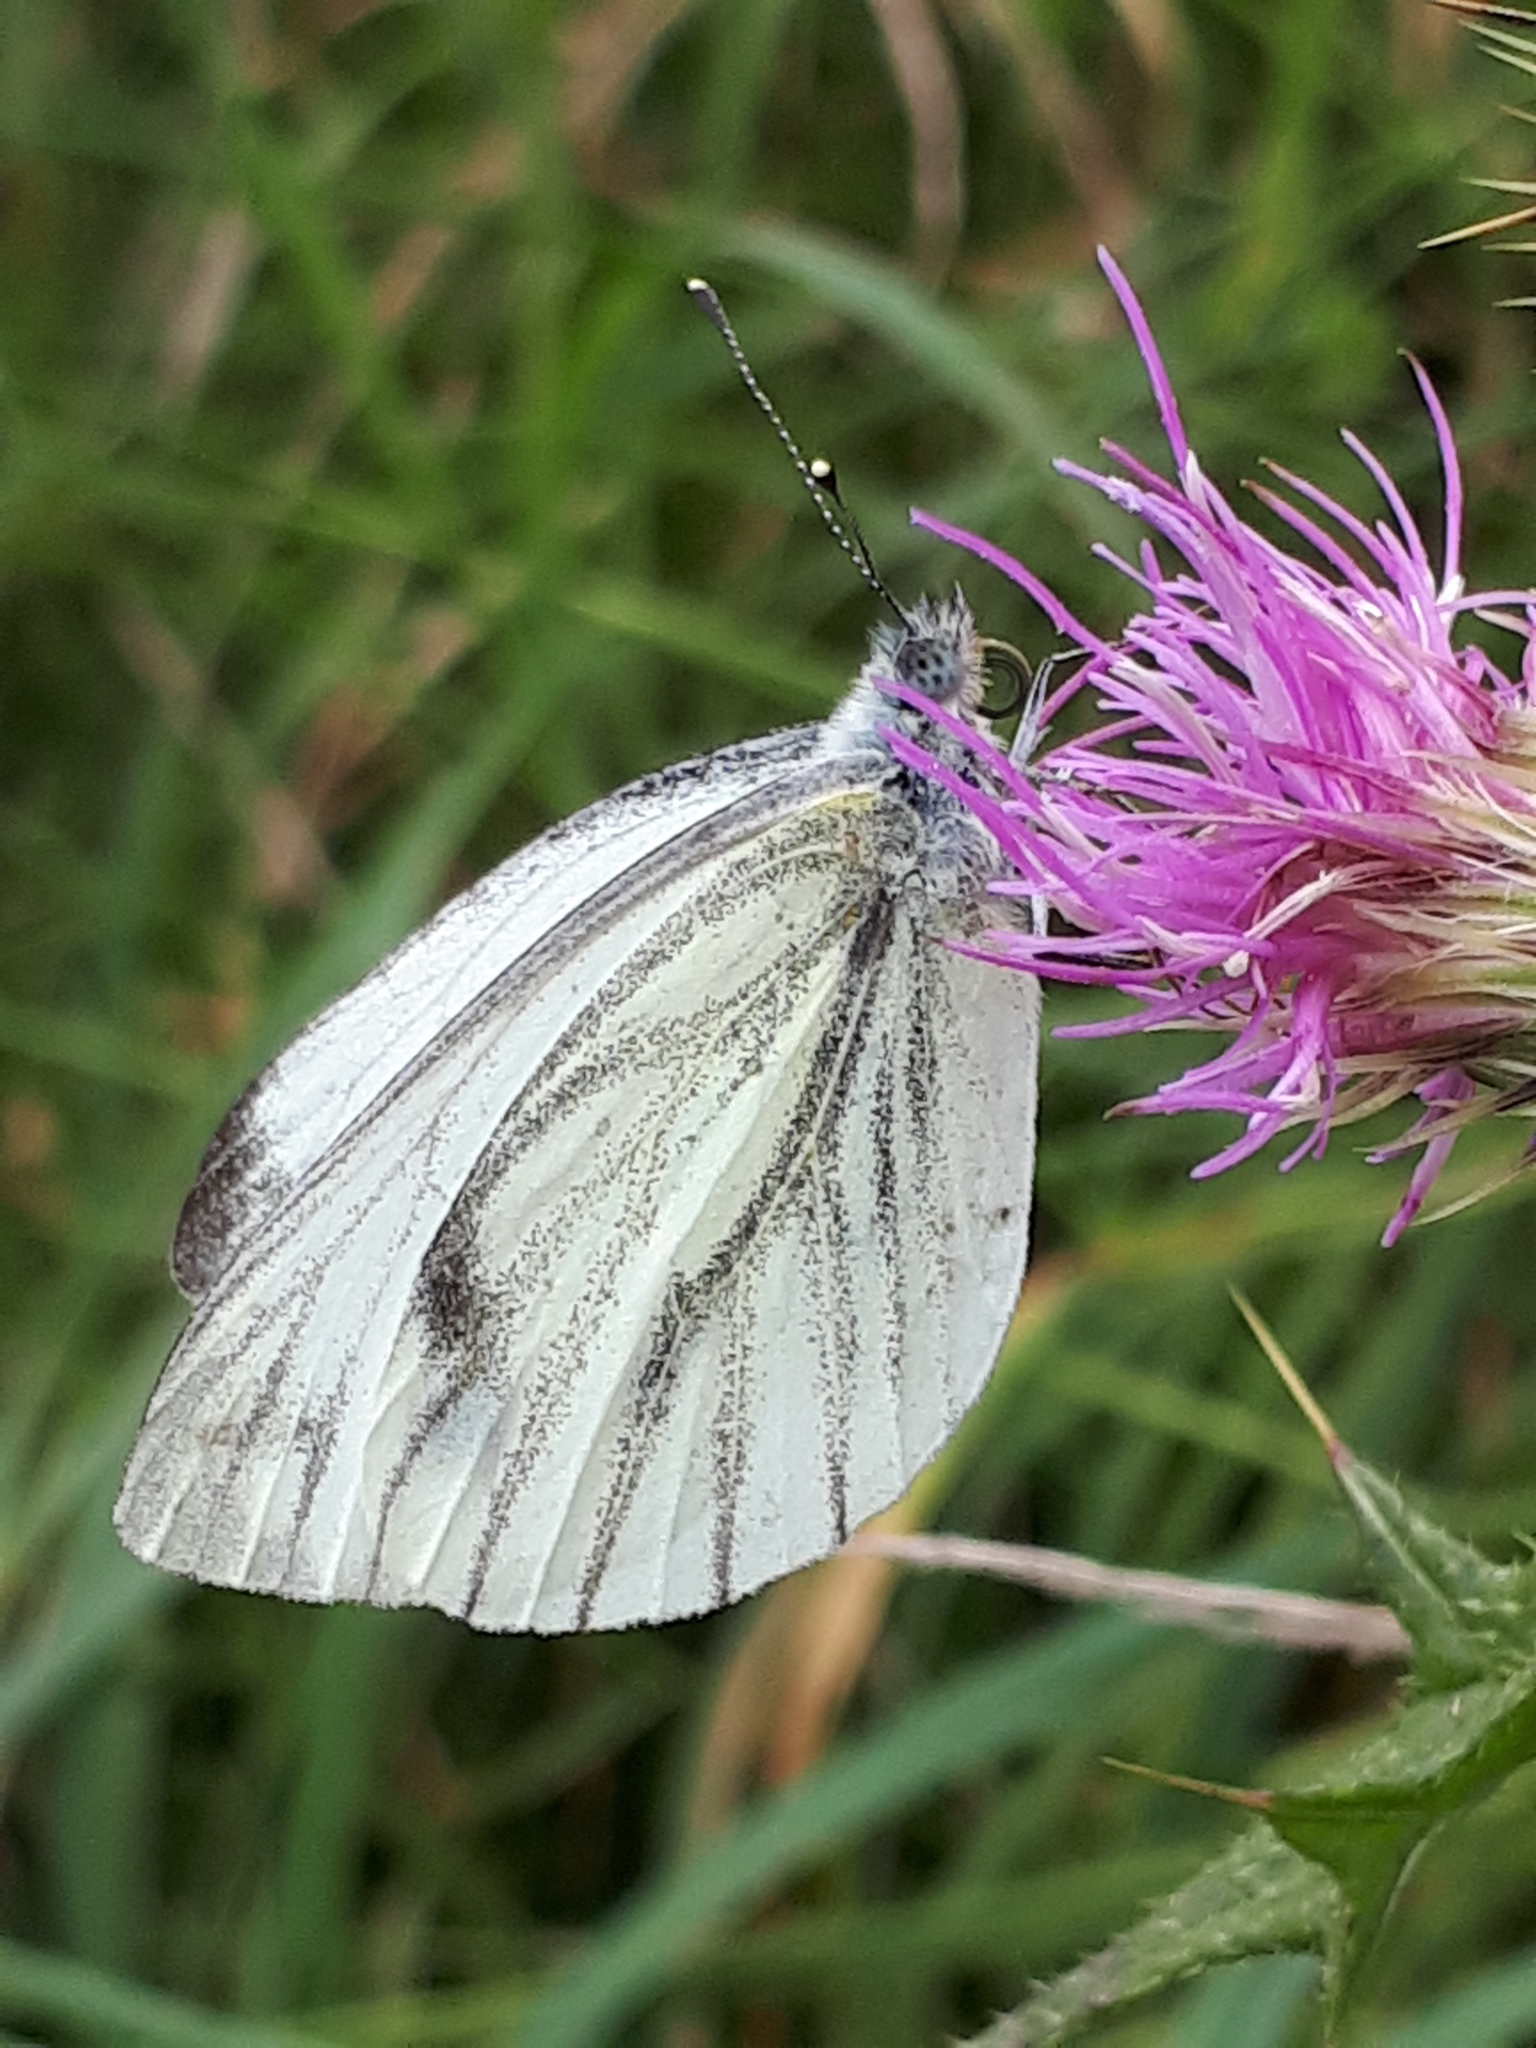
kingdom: Animalia
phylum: Arthropoda
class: Insecta
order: Lepidoptera
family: Pieridae
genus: Pieris
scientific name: Pieris napi
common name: Green-veined white
